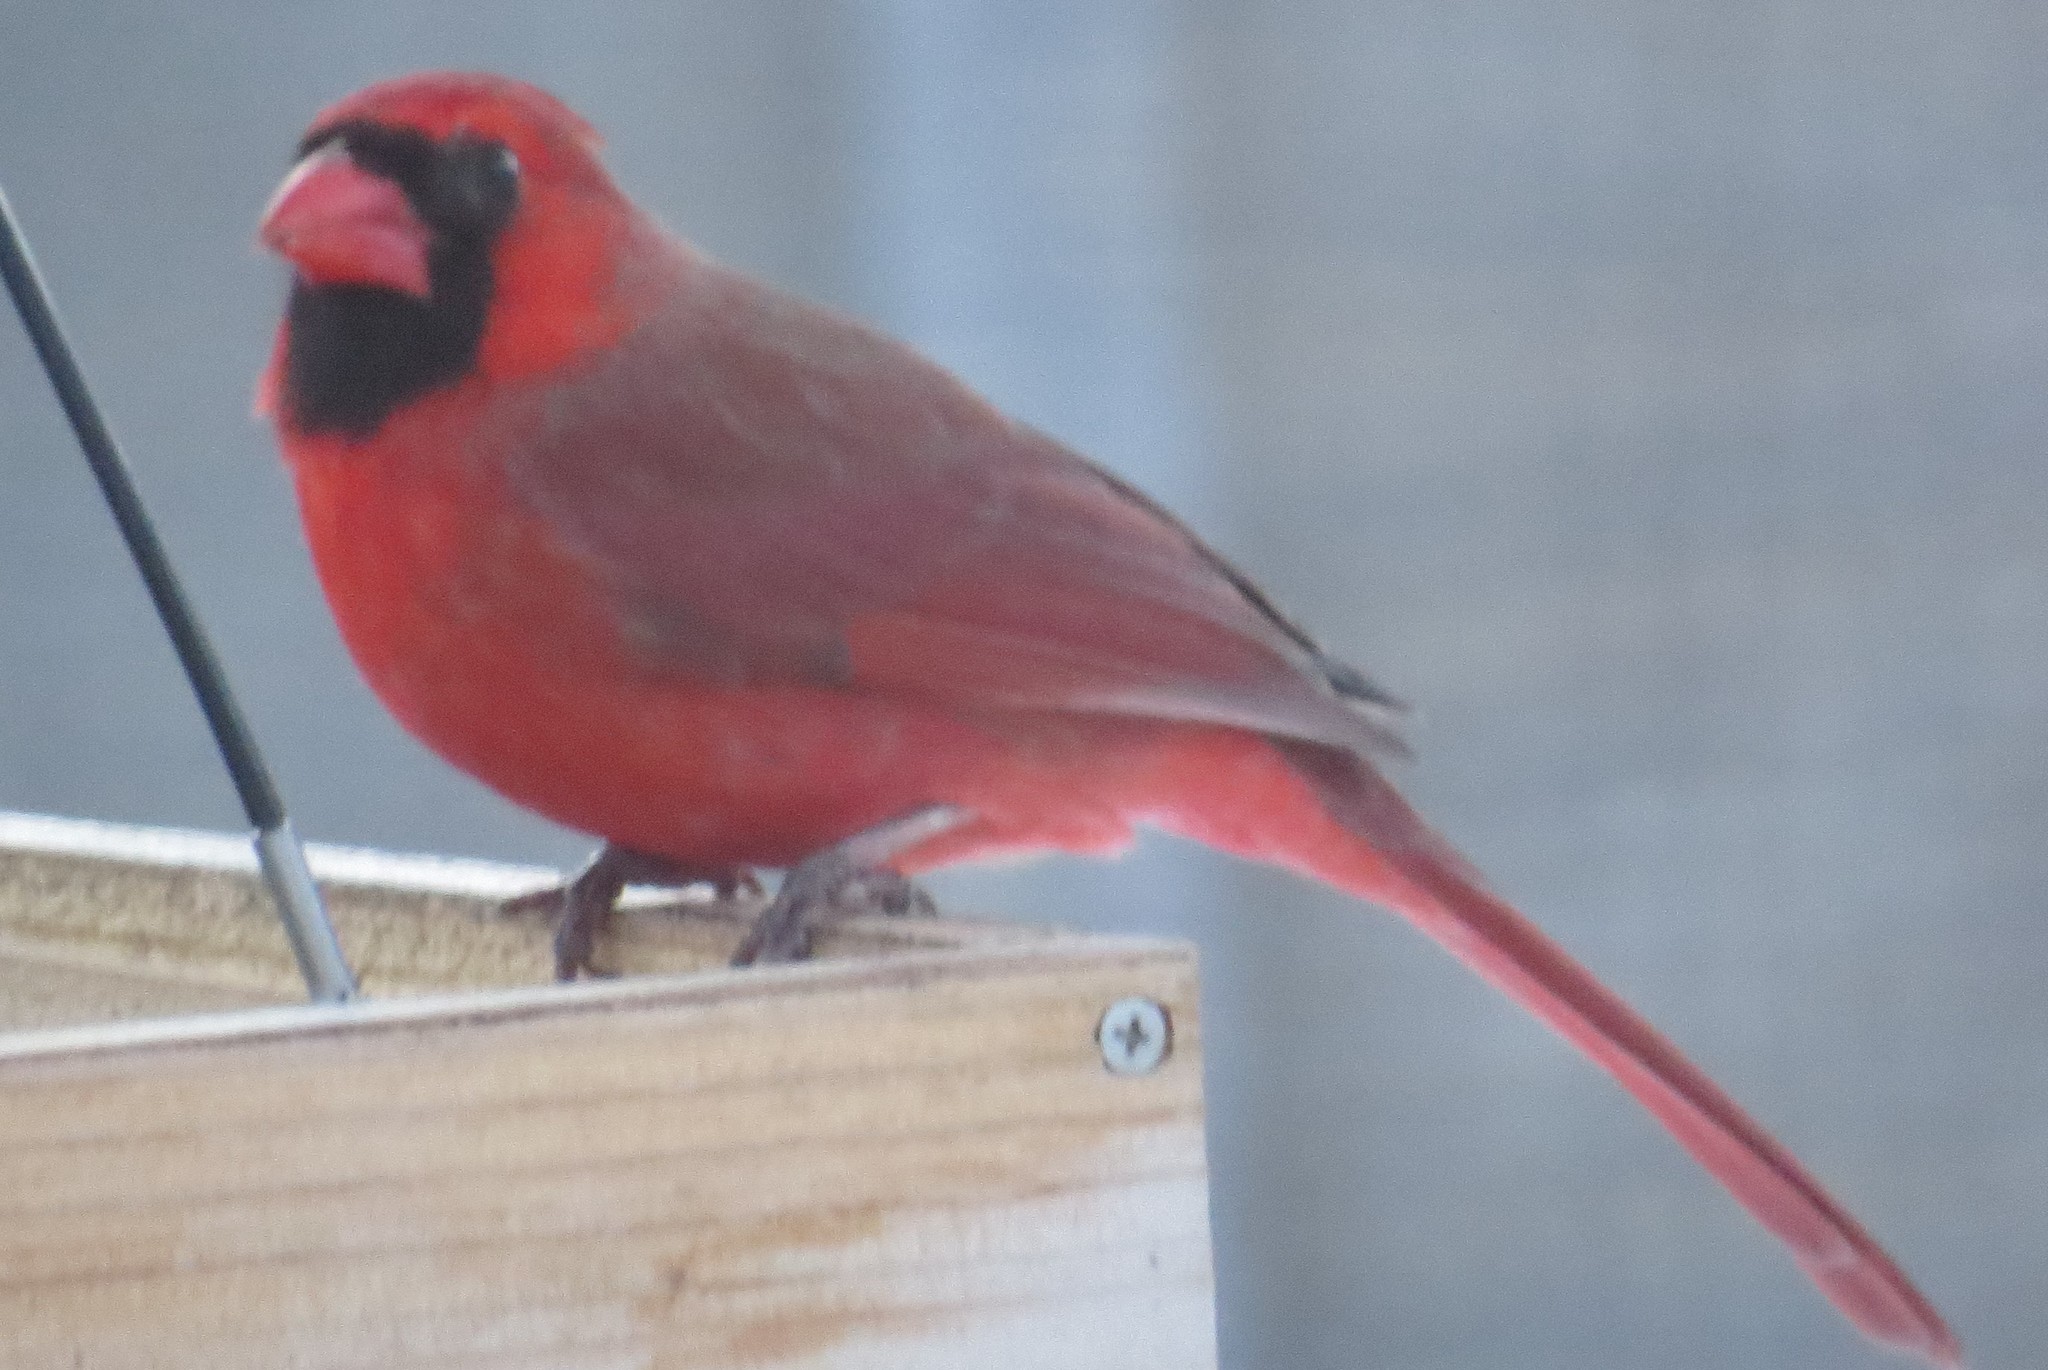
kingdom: Animalia
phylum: Chordata
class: Aves
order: Passeriformes
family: Cardinalidae
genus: Cardinalis
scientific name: Cardinalis cardinalis
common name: Northern cardinal
